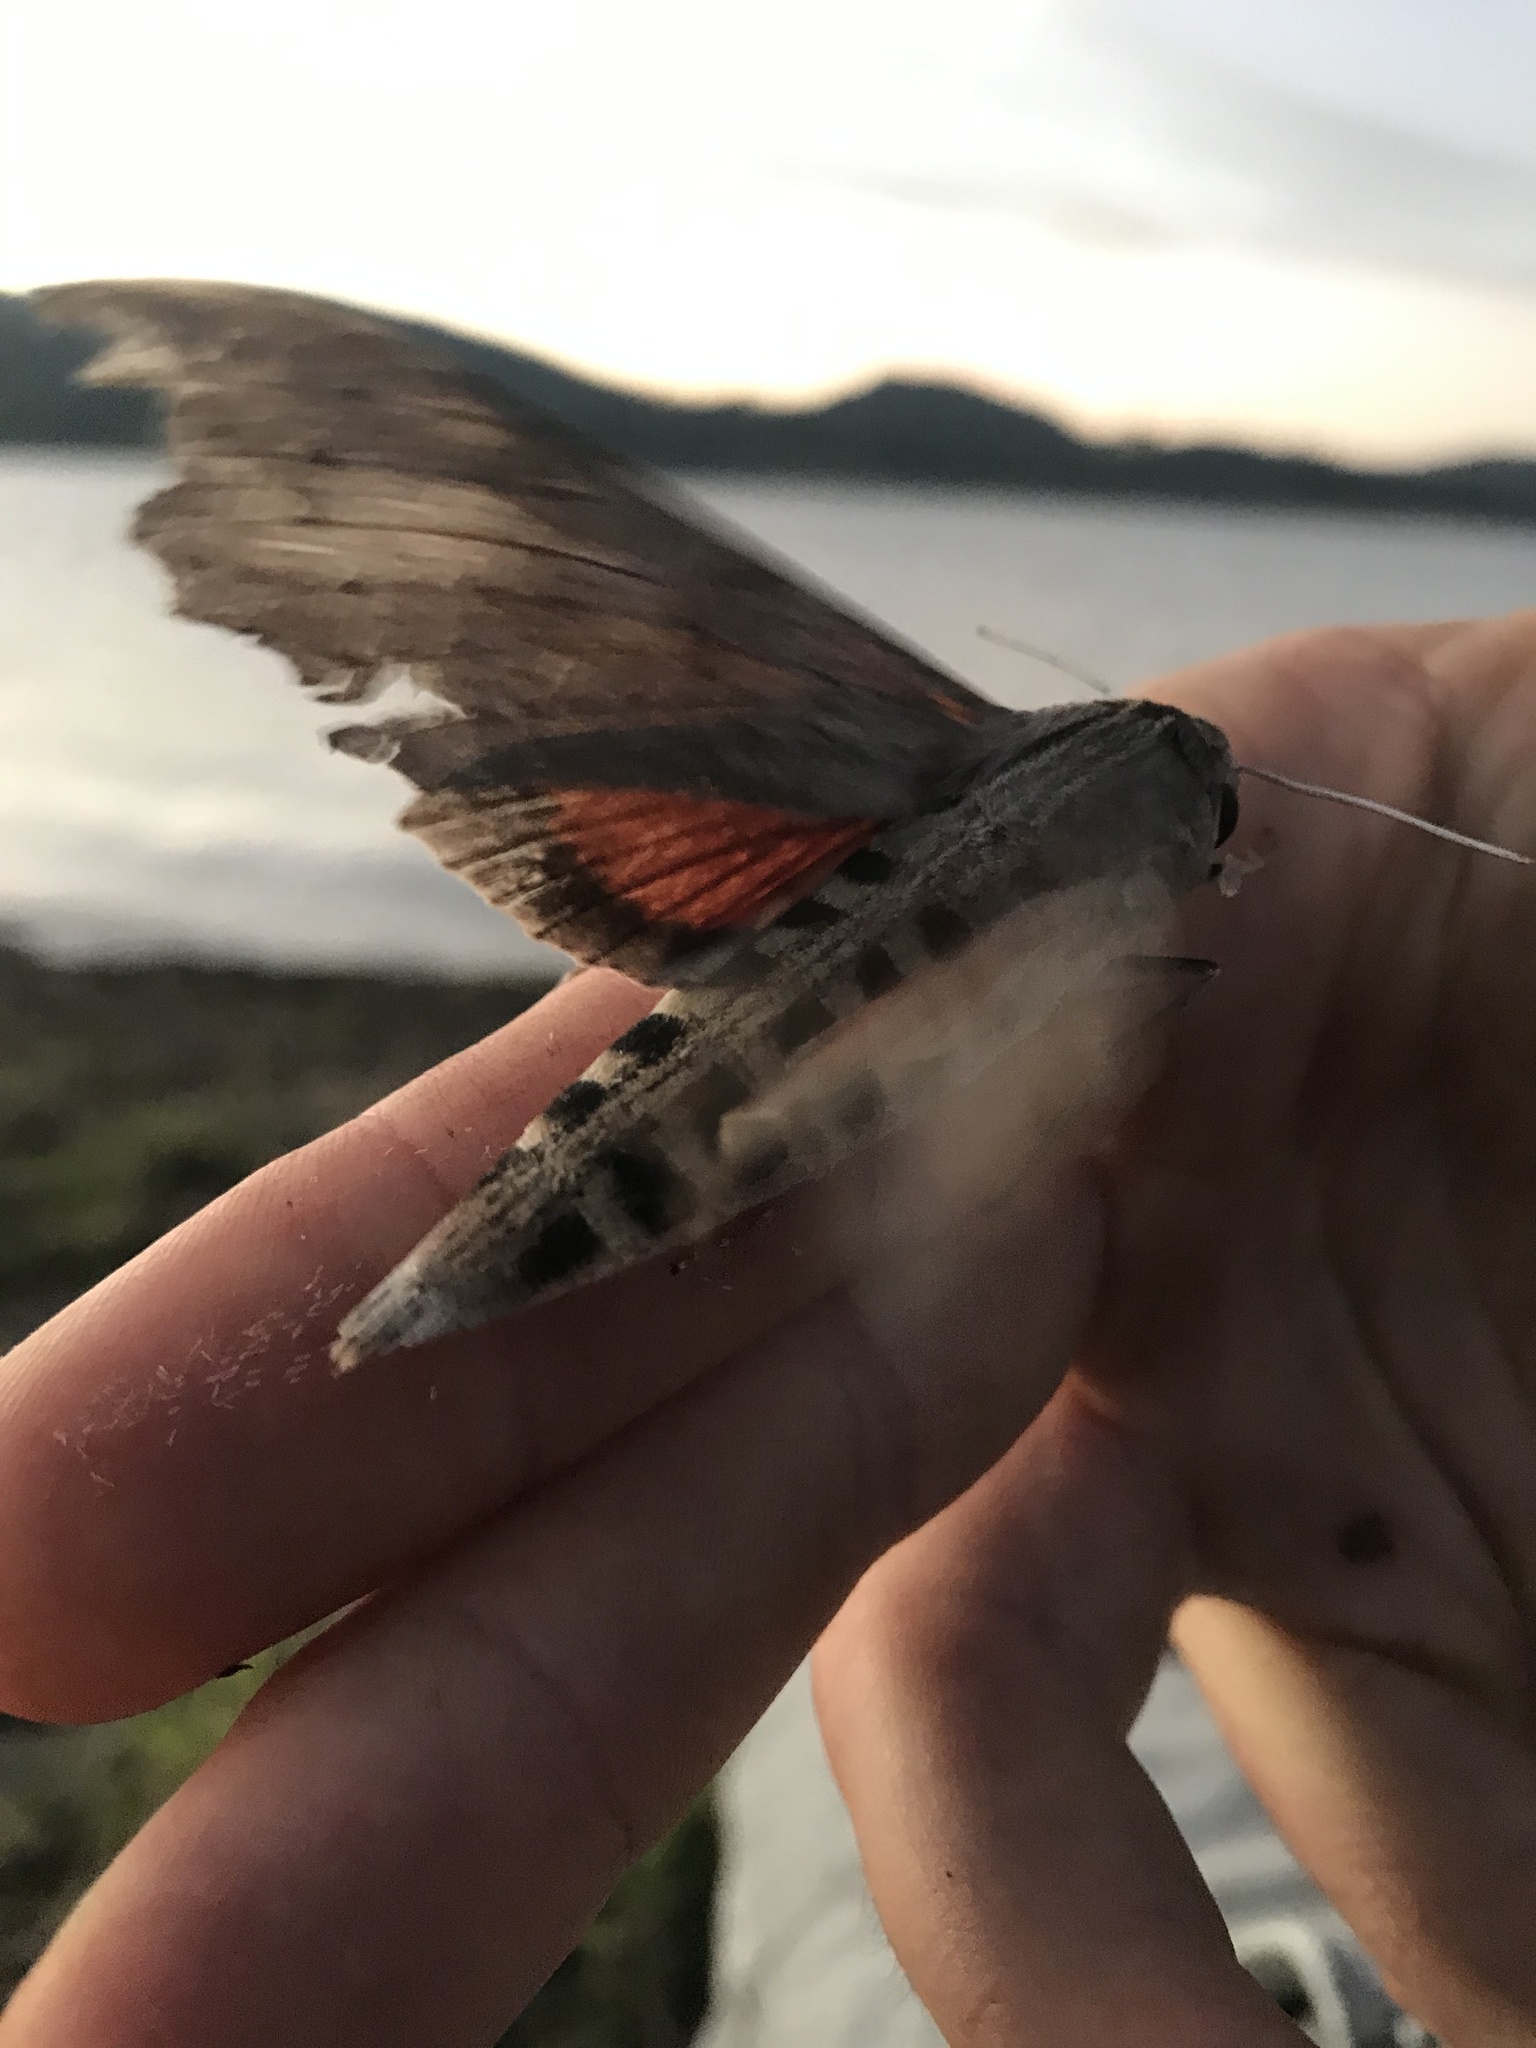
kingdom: Animalia
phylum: Arthropoda
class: Insecta
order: Lepidoptera
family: Sphingidae
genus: Erinnyis
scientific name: Erinnyis ello
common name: Ello sphinx
